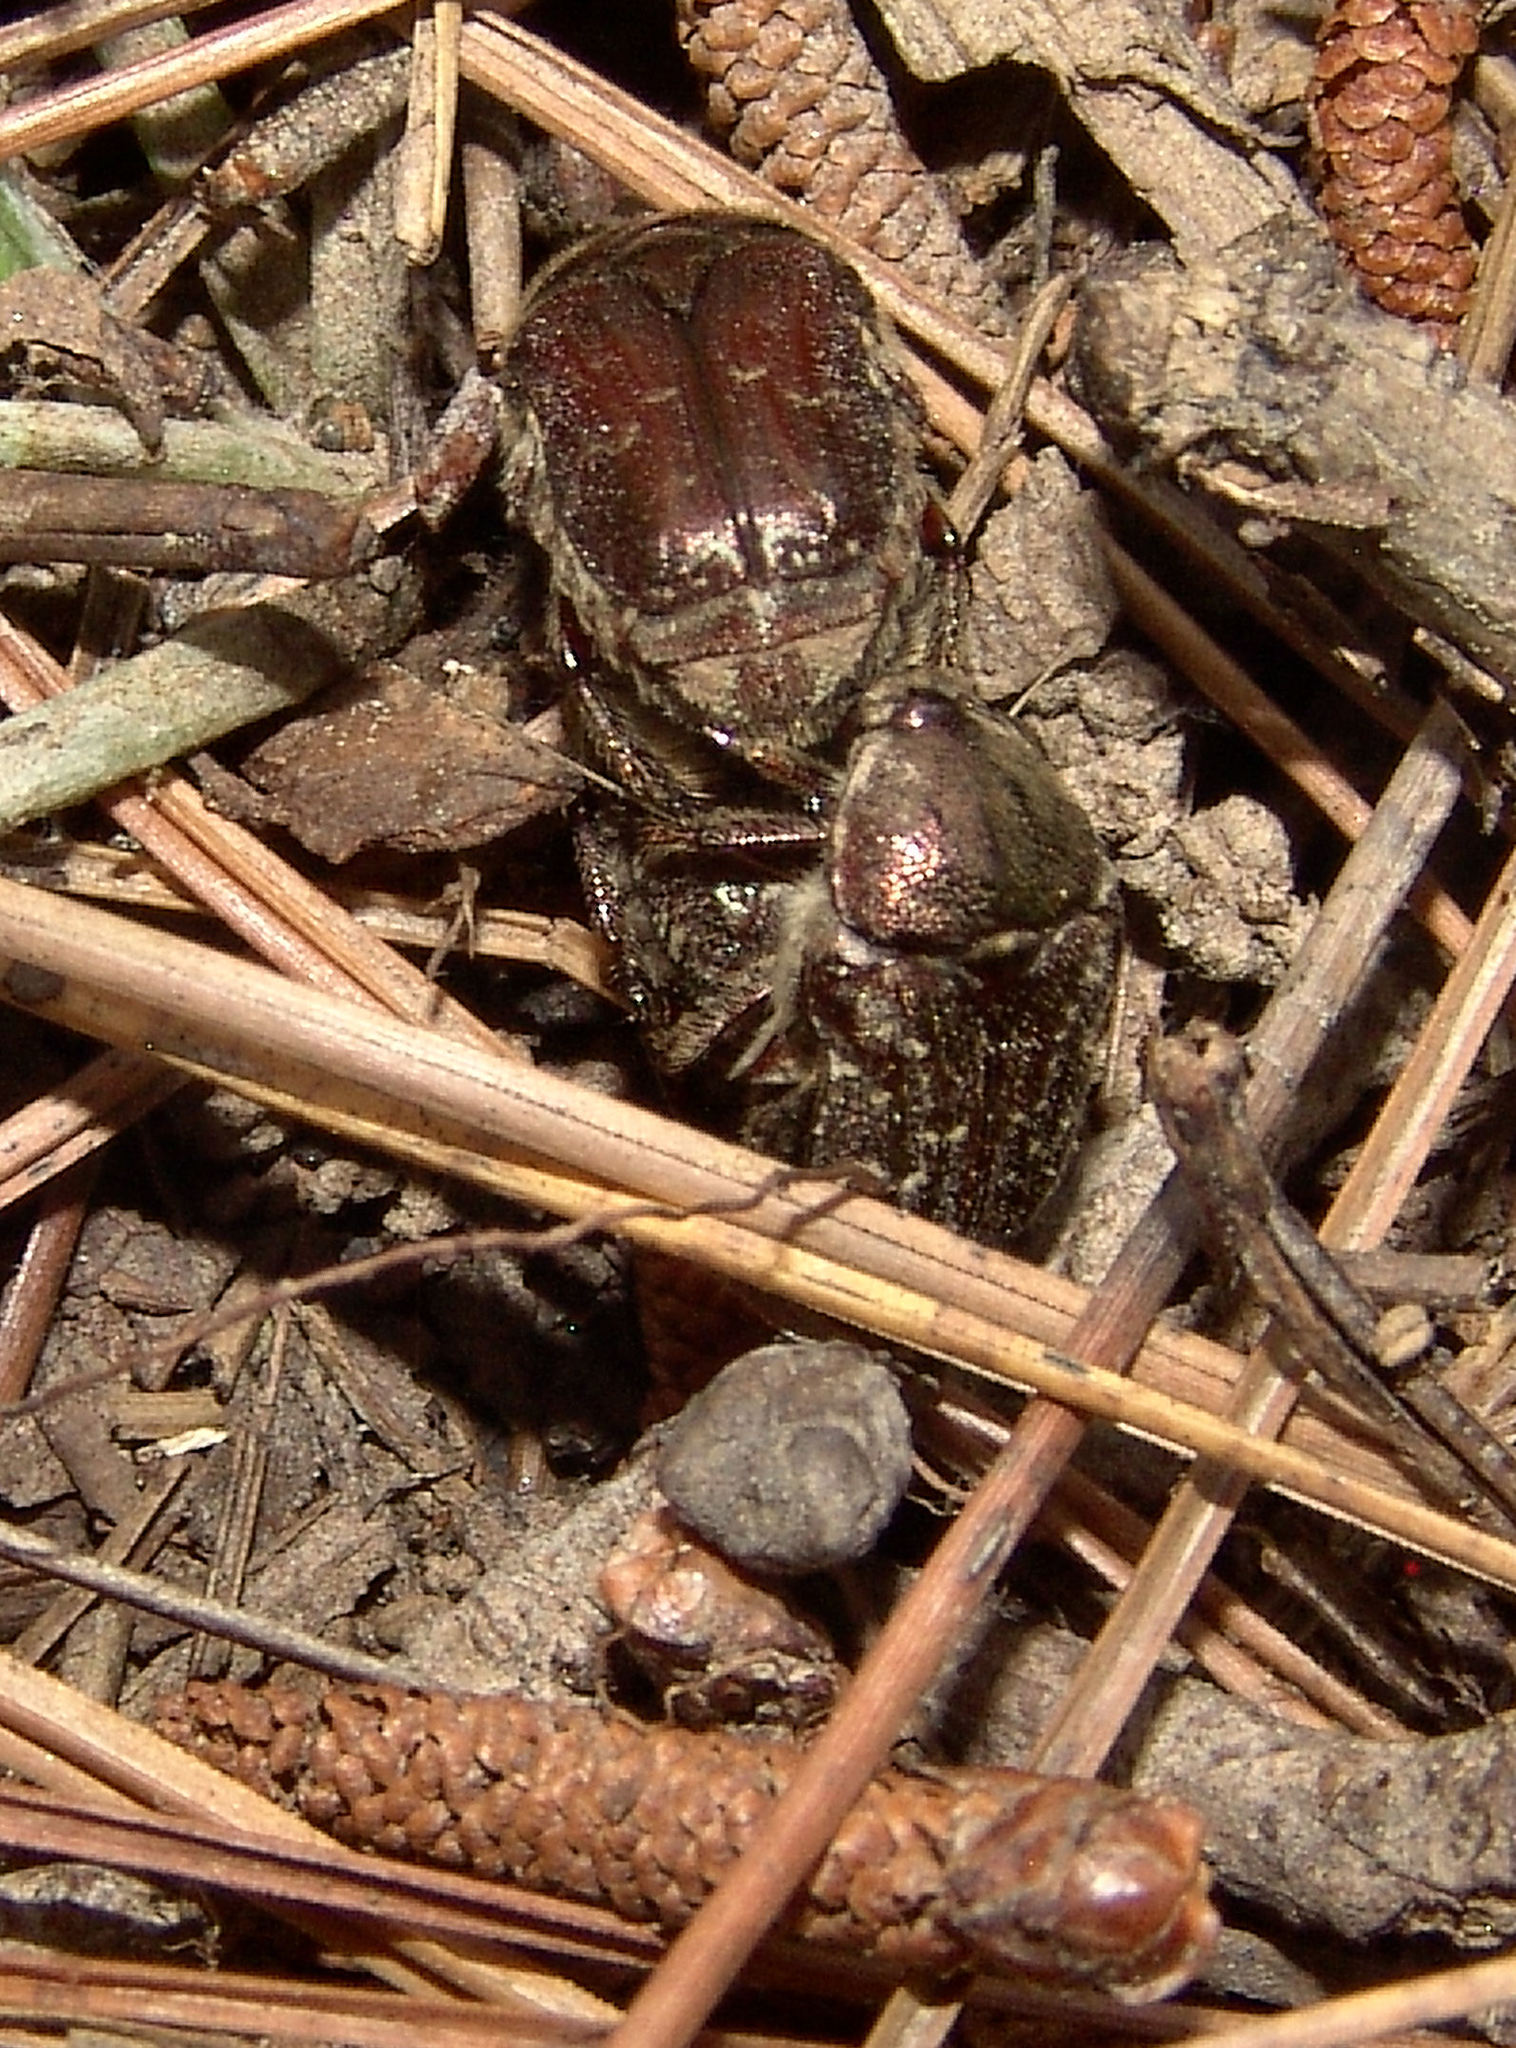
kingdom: Animalia
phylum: Arthropoda
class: Insecta
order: Coleoptera
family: Scarabaeidae
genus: Euphoria
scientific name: Euphoria sepulcralis
